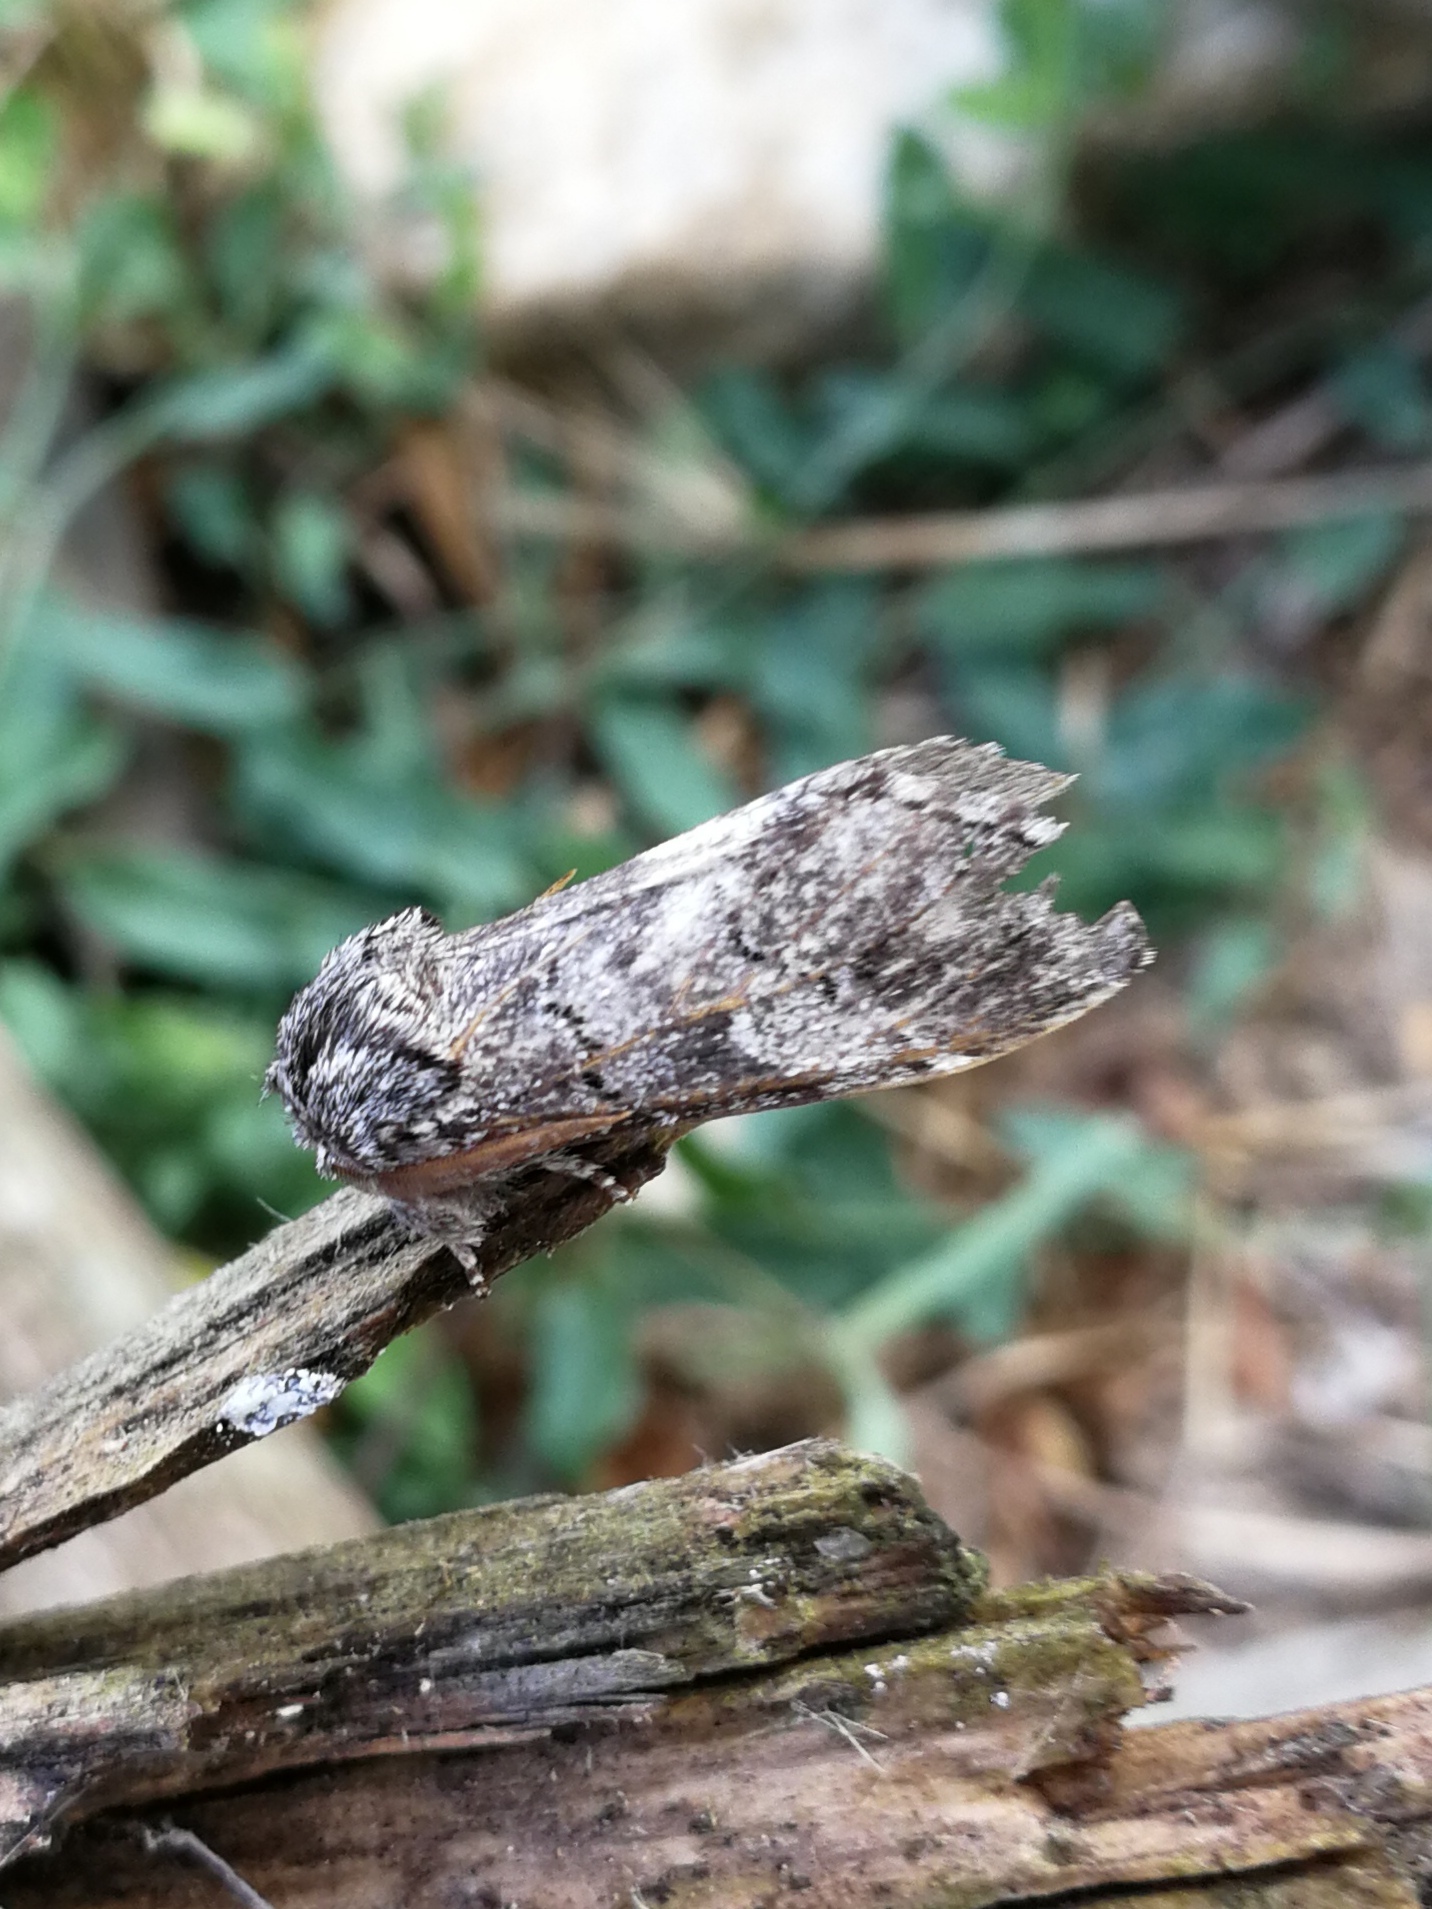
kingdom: Animalia
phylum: Arthropoda
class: Insecta
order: Lepidoptera
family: Notodontidae
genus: Drymonia
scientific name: Drymonia querna
